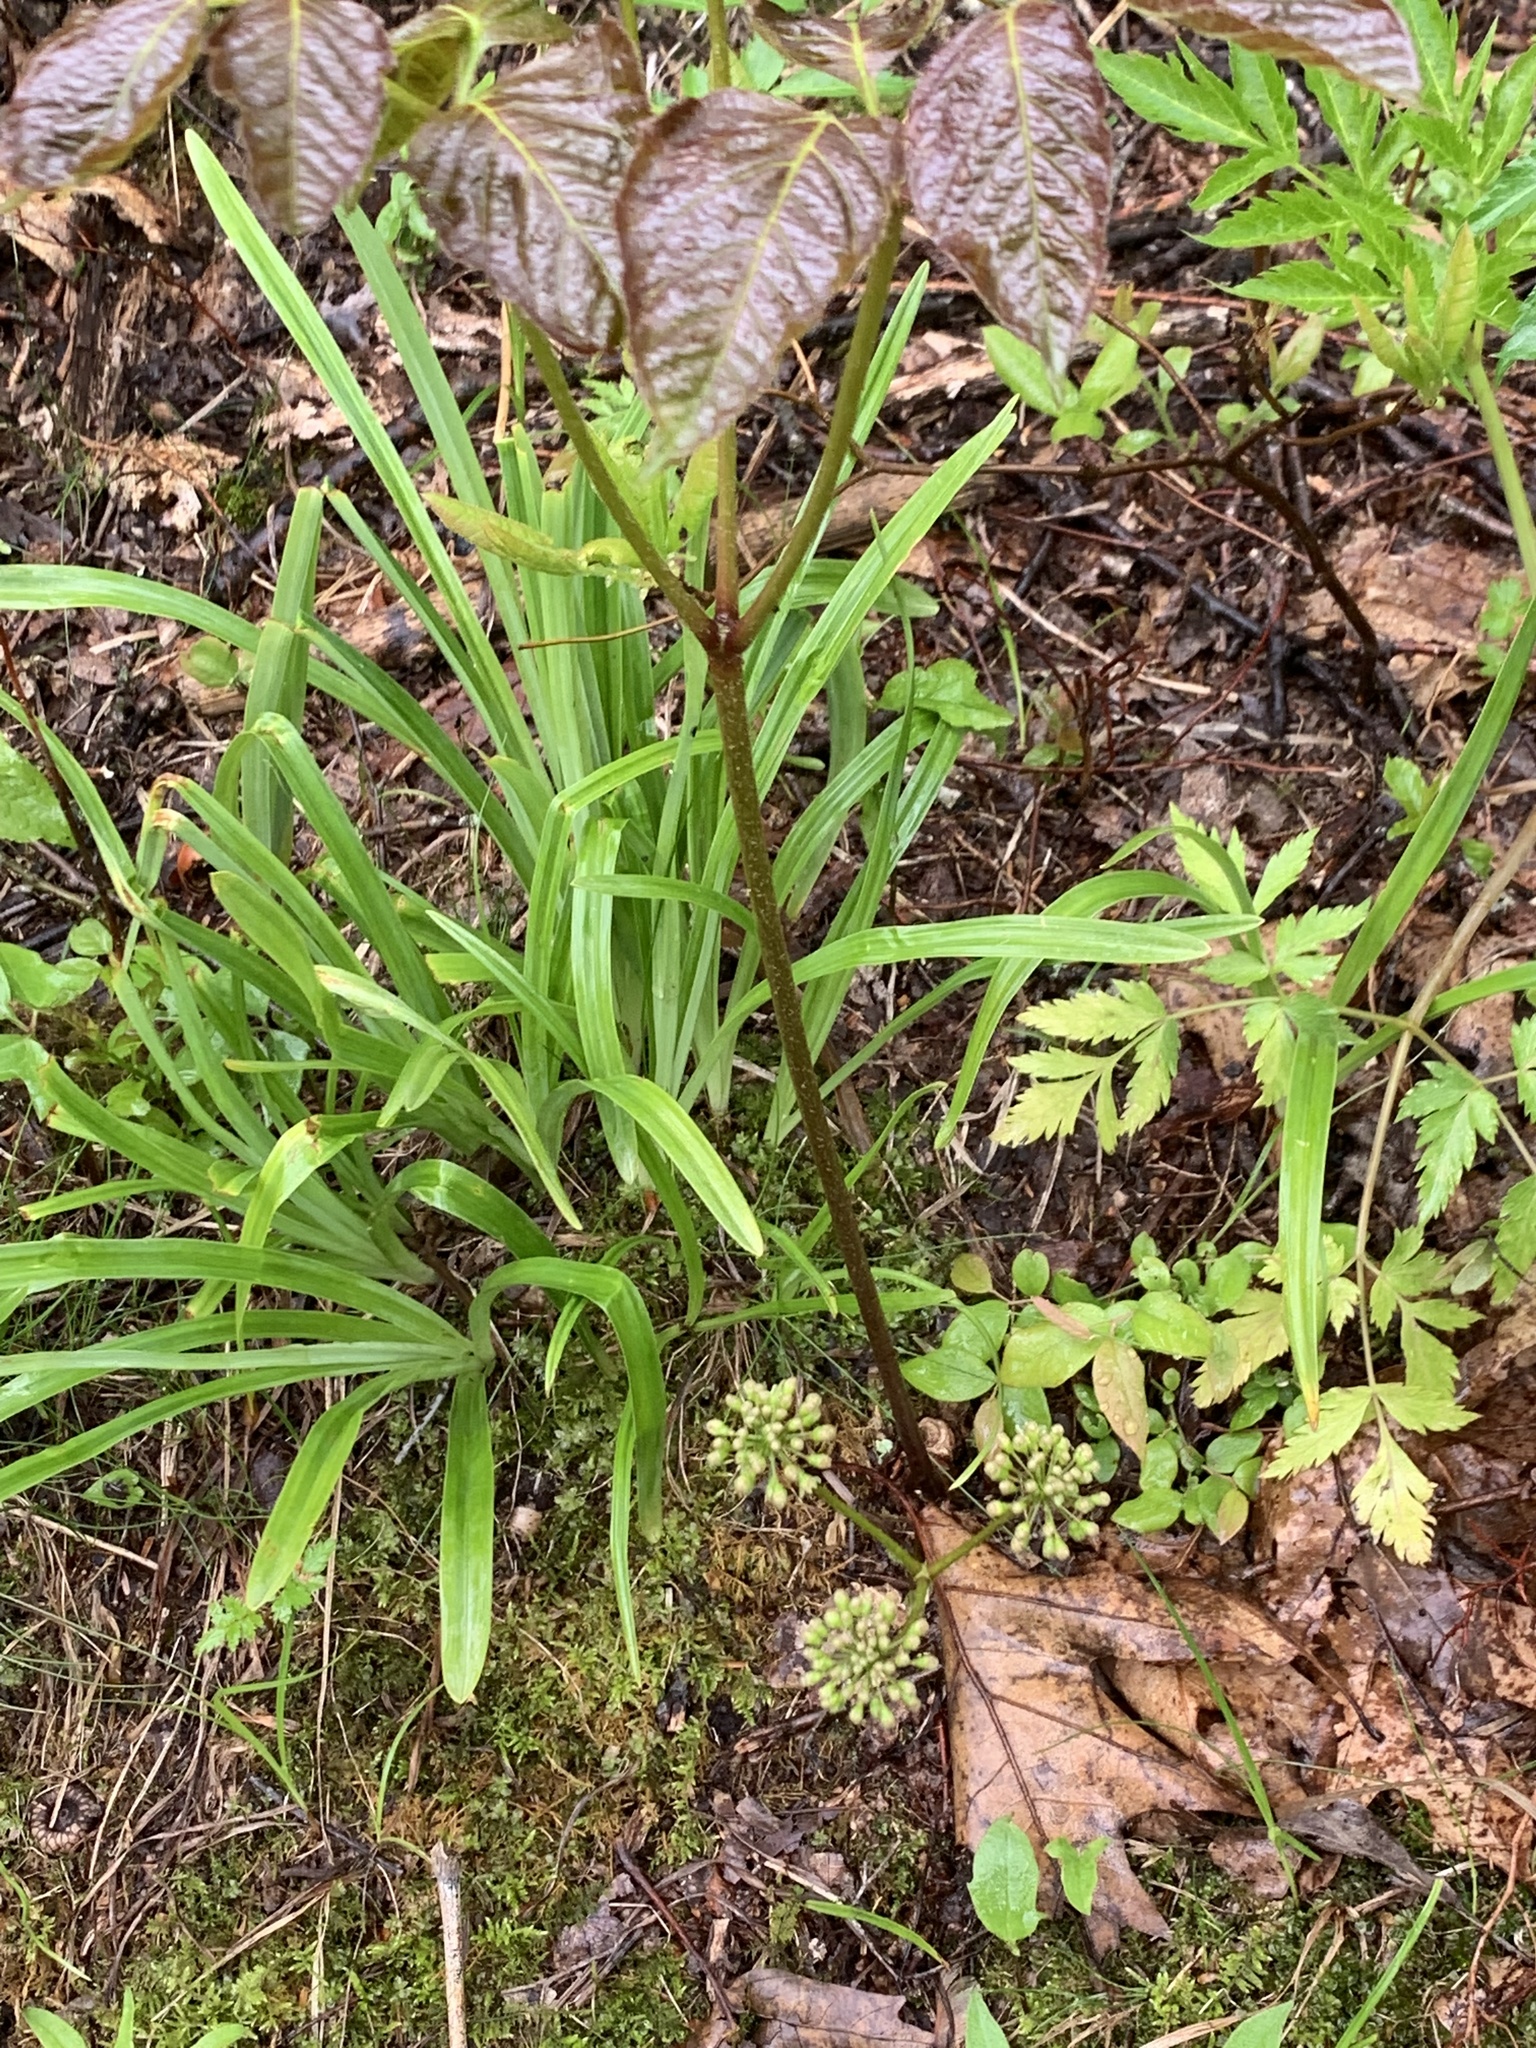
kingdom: Plantae
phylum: Tracheophyta
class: Magnoliopsida
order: Apiales
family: Araliaceae
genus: Aralia
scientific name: Aralia nudicaulis
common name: Wild sarsaparilla
